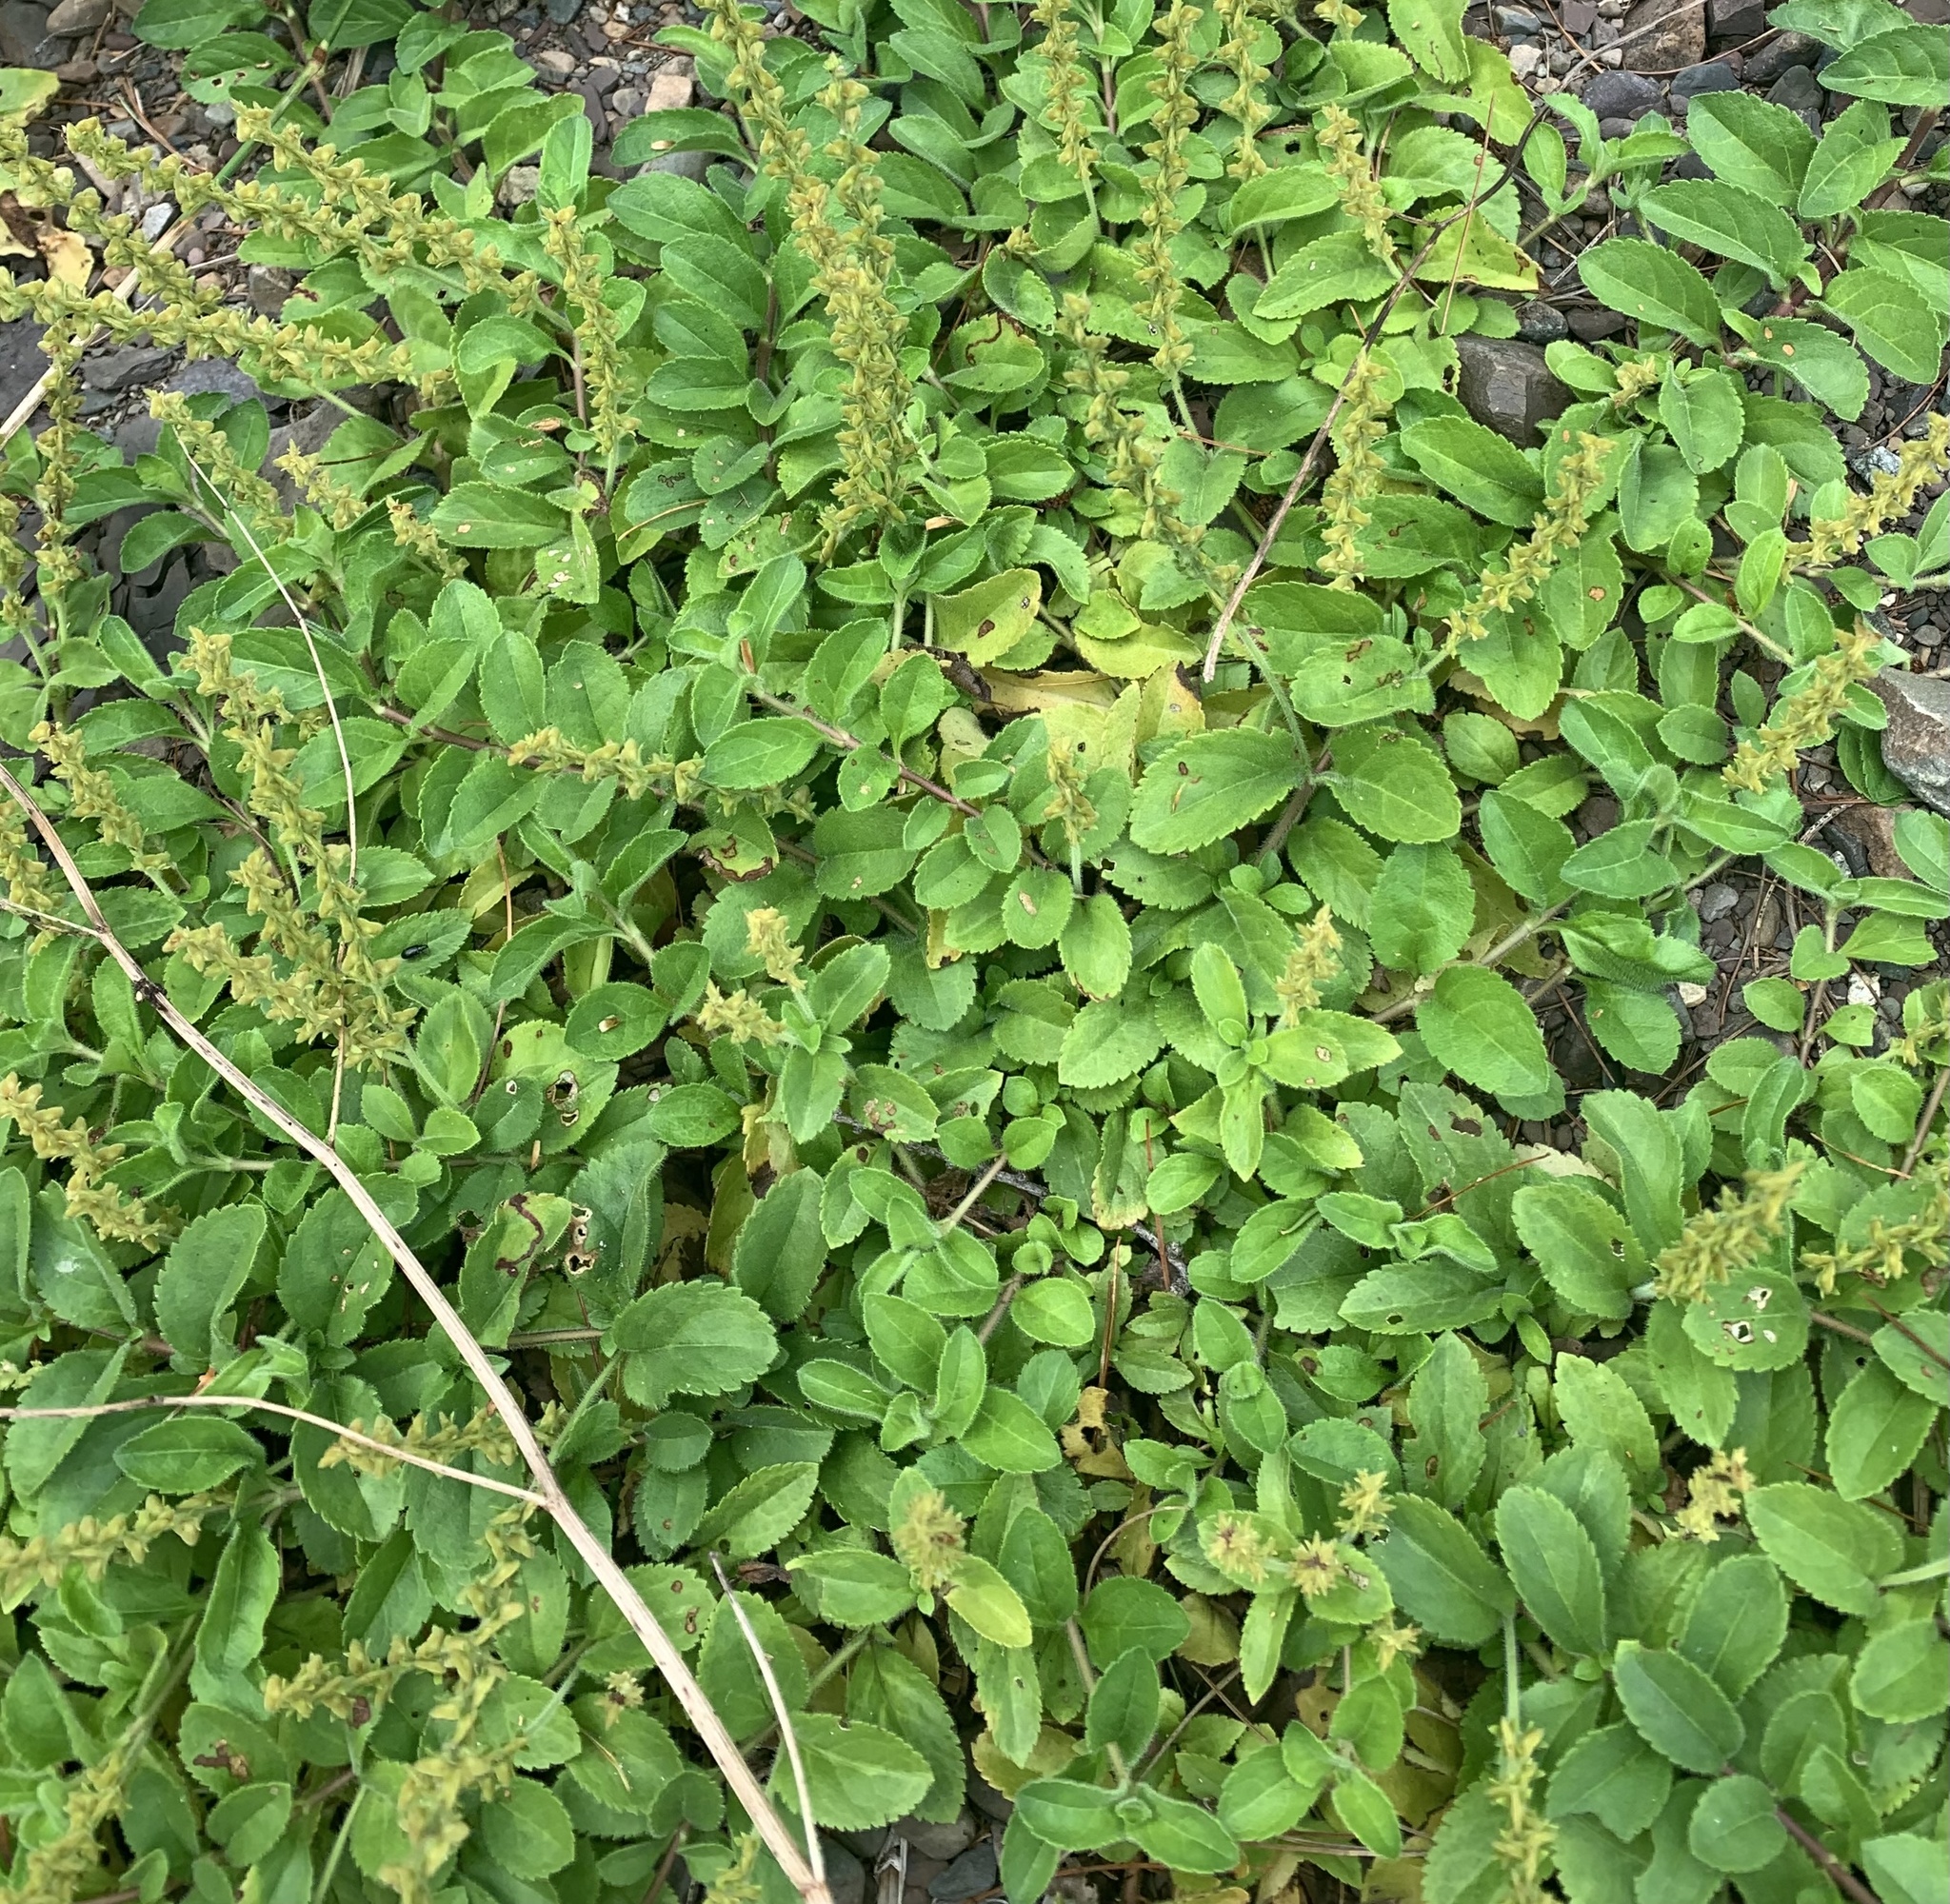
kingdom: Plantae
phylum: Tracheophyta
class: Magnoliopsida
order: Lamiales
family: Plantaginaceae
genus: Veronica
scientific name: Veronica officinalis
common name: Common speedwell
